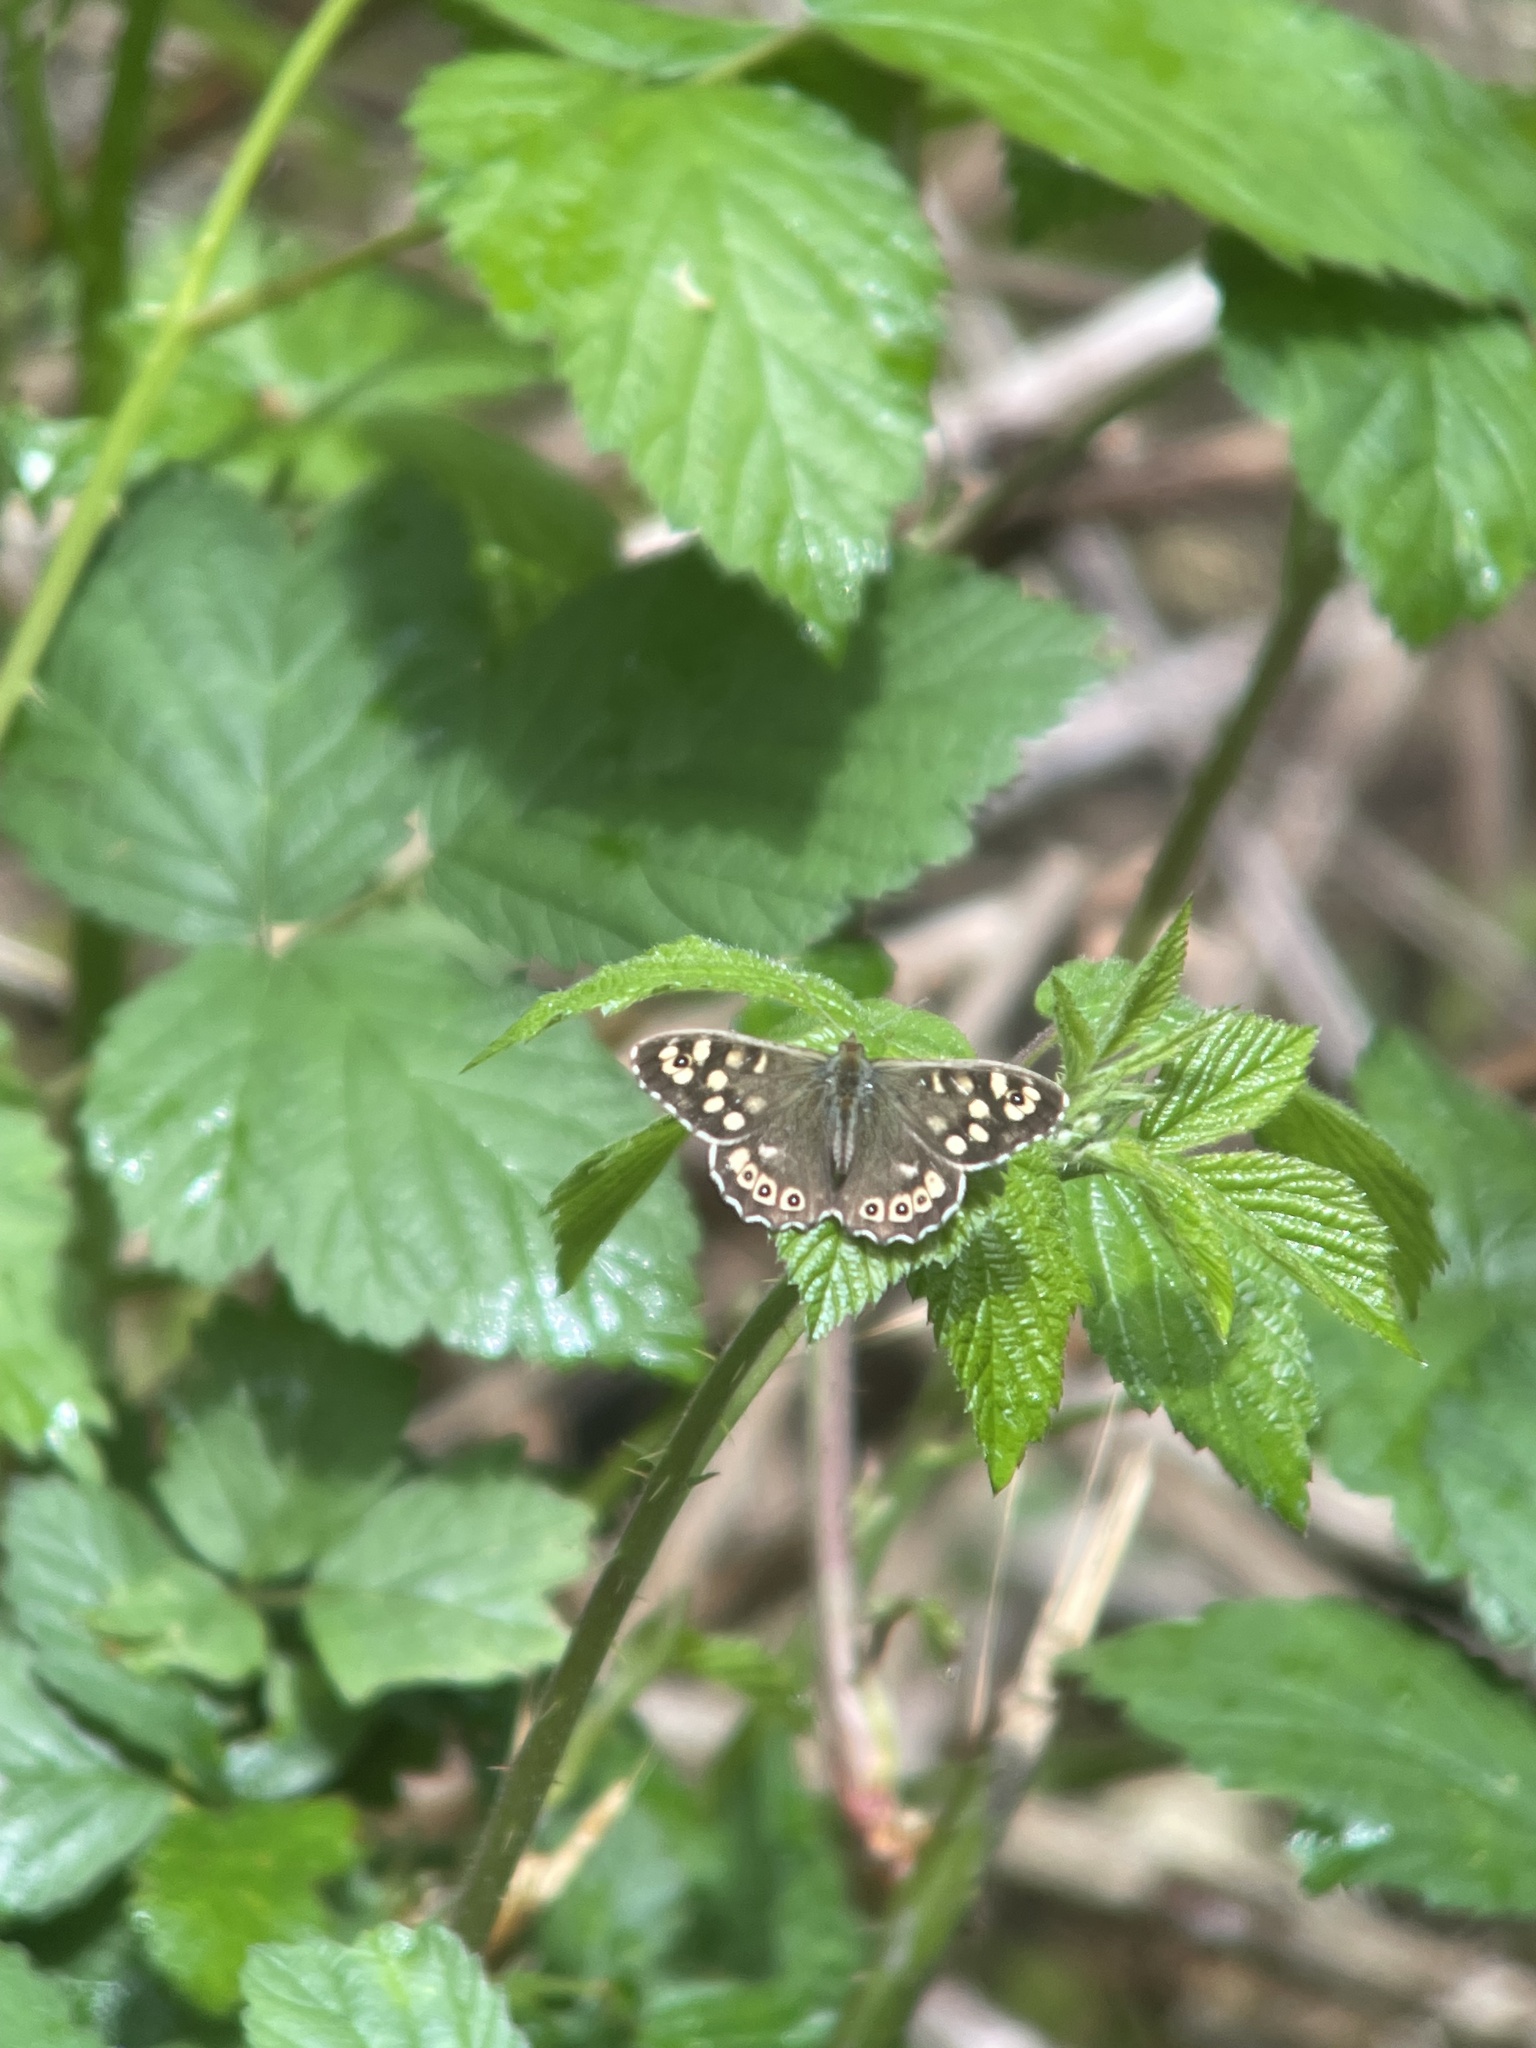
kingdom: Animalia
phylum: Arthropoda
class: Insecta
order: Lepidoptera
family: Nymphalidae
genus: Pararge
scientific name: Pararge aegeria
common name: Speckled wood
